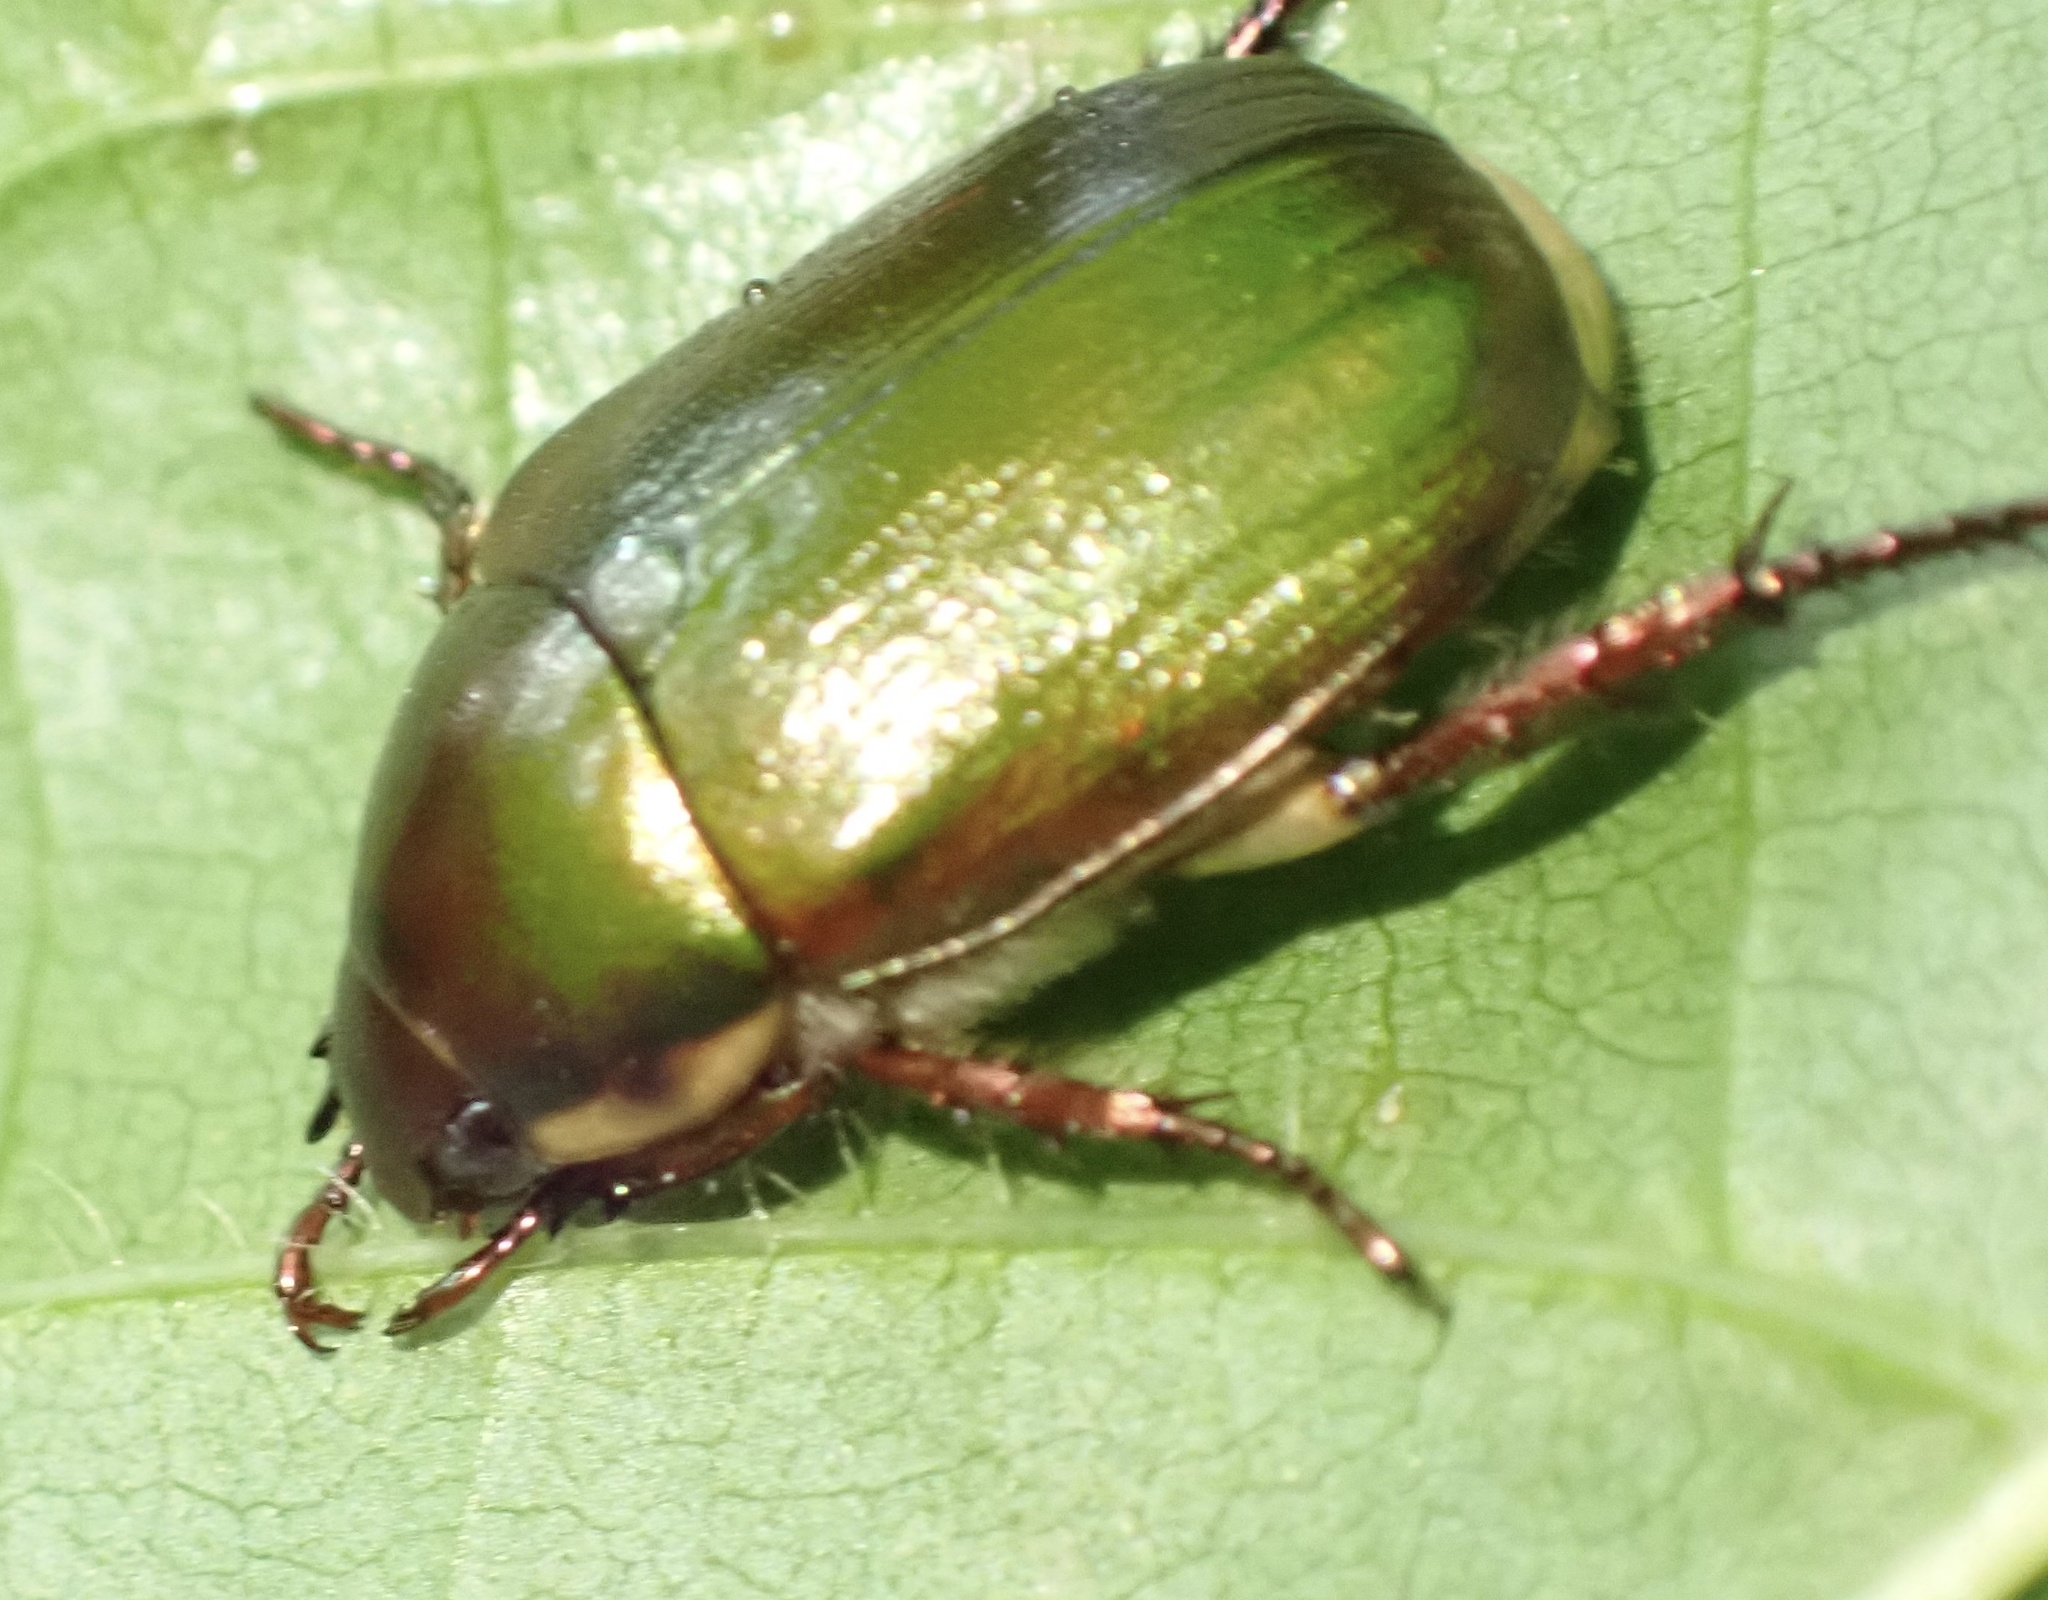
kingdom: Animalia
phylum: Arthropoda
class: Insecta
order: Coleoptera
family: Scarabaeidae
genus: Anomala
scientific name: Anomala minahassae
